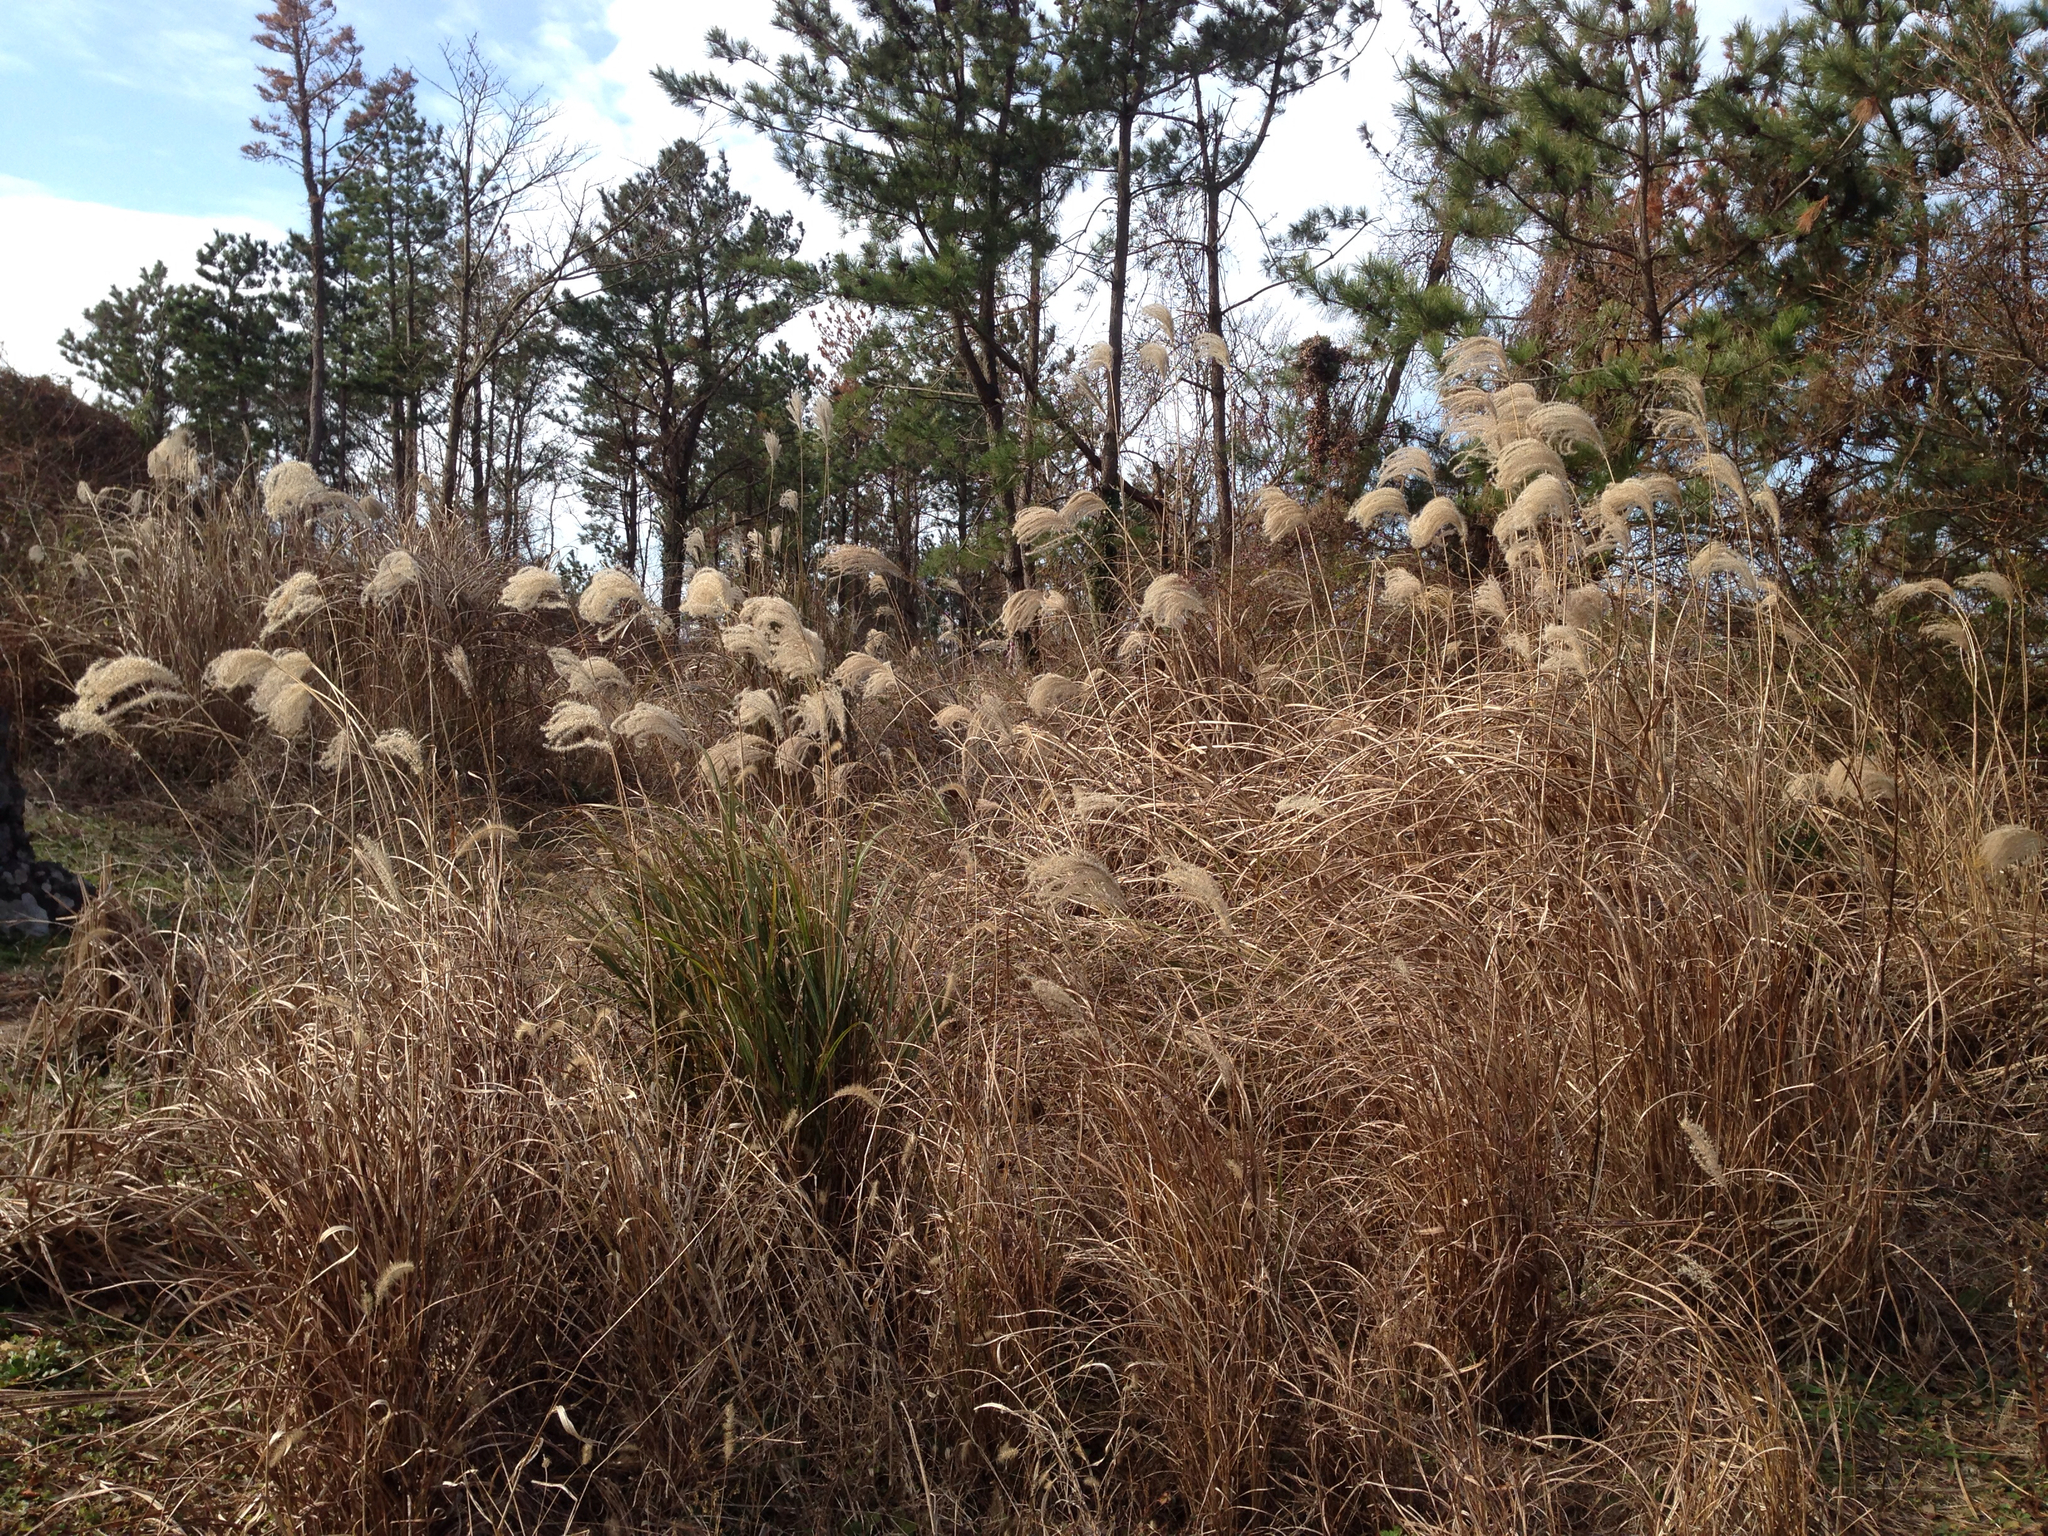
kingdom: Plantae
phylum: Tracheophyta
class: Liliopsida
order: Poales
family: Poaceae
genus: Miscanthus
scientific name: Miscanthus sinensis
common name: Chinese silvergrass
